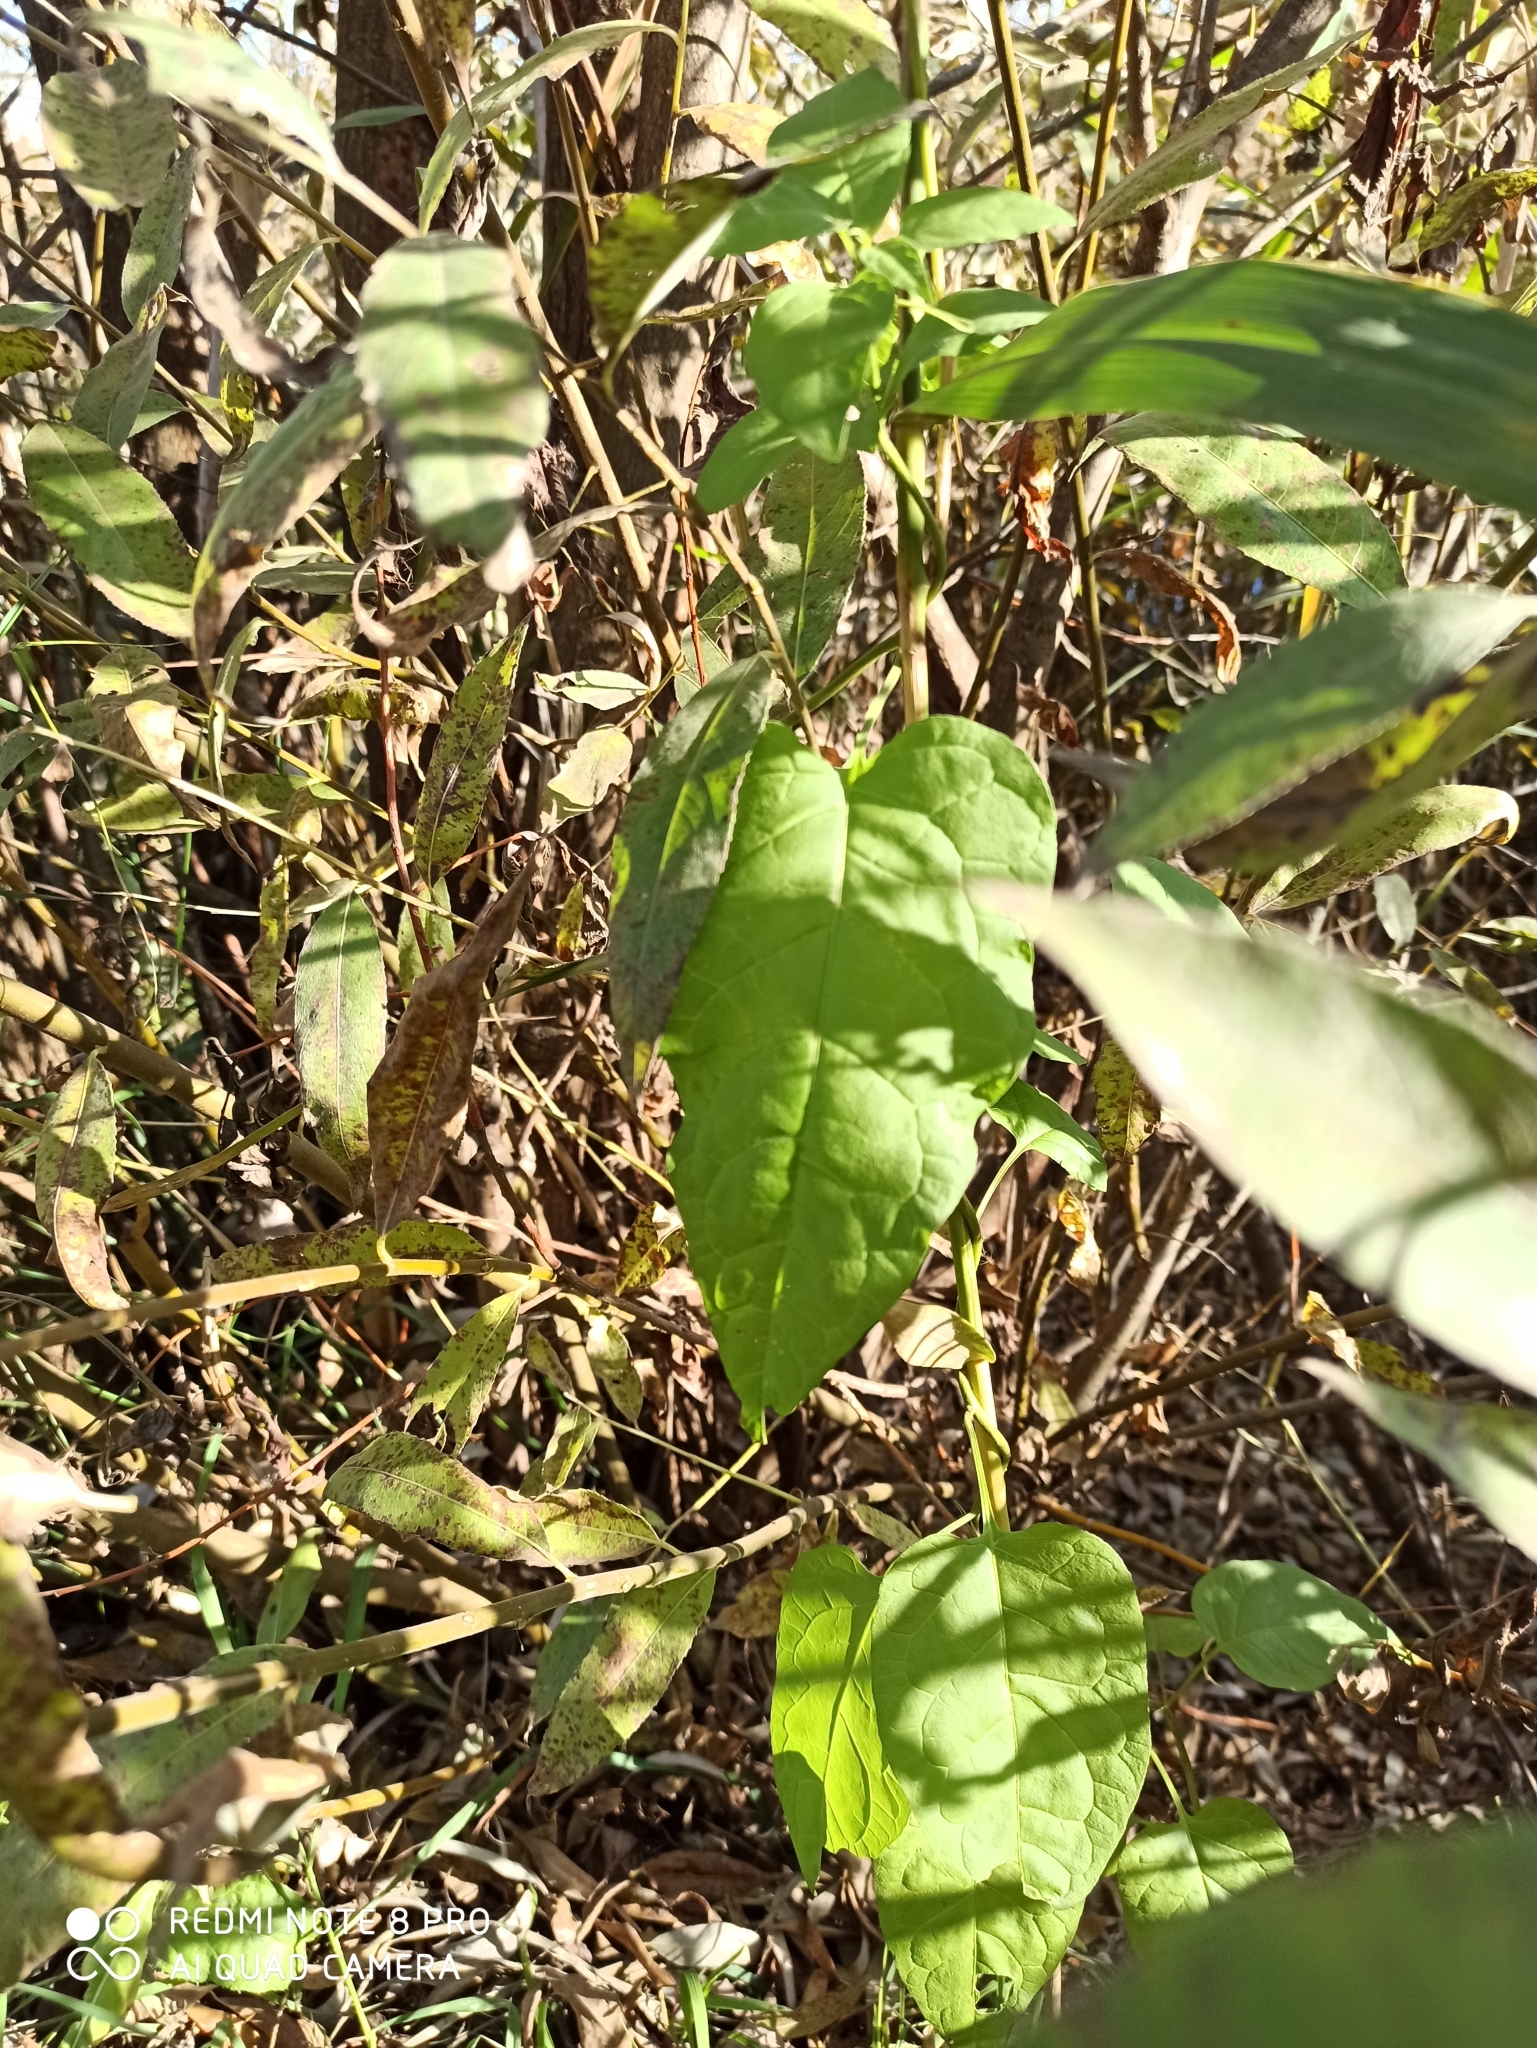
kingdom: Plantae
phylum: Tracheophyta
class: Magnoliopsida
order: Solanales
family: Solanaceae
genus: Solanum
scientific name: Solanum dulcamara
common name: Climbing nightshade
